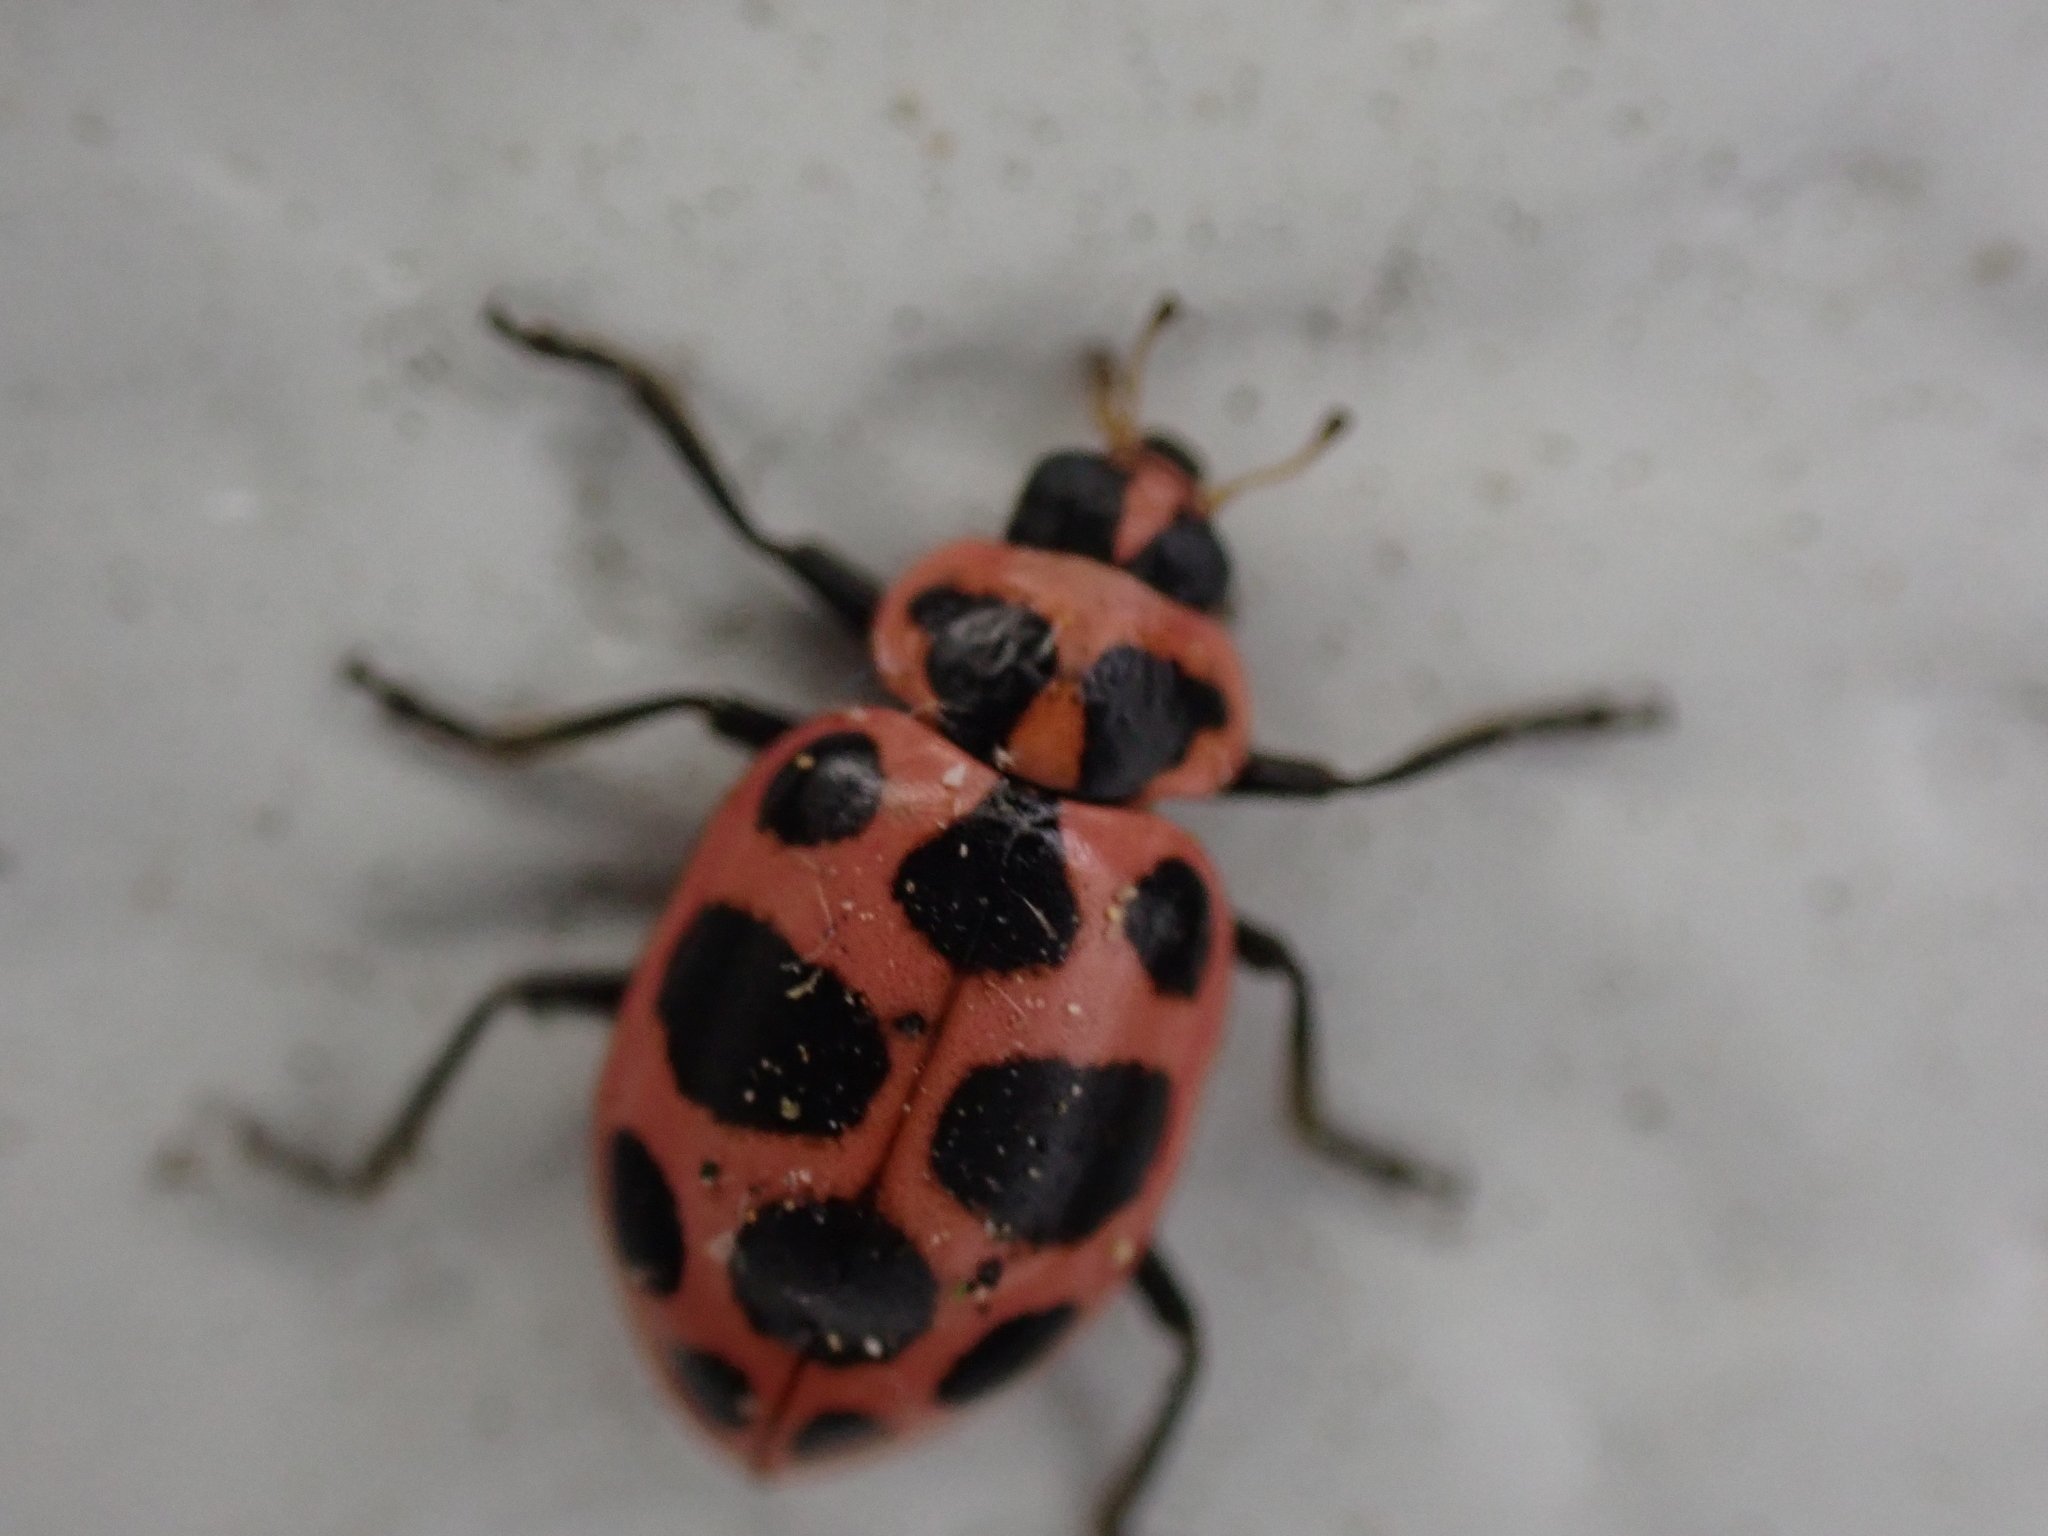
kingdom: Animalia
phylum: Arthropoda
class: Insecta
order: Coleoptera
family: Coccinellidae
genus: Coleomegilla
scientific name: Coleomegilla maculata
